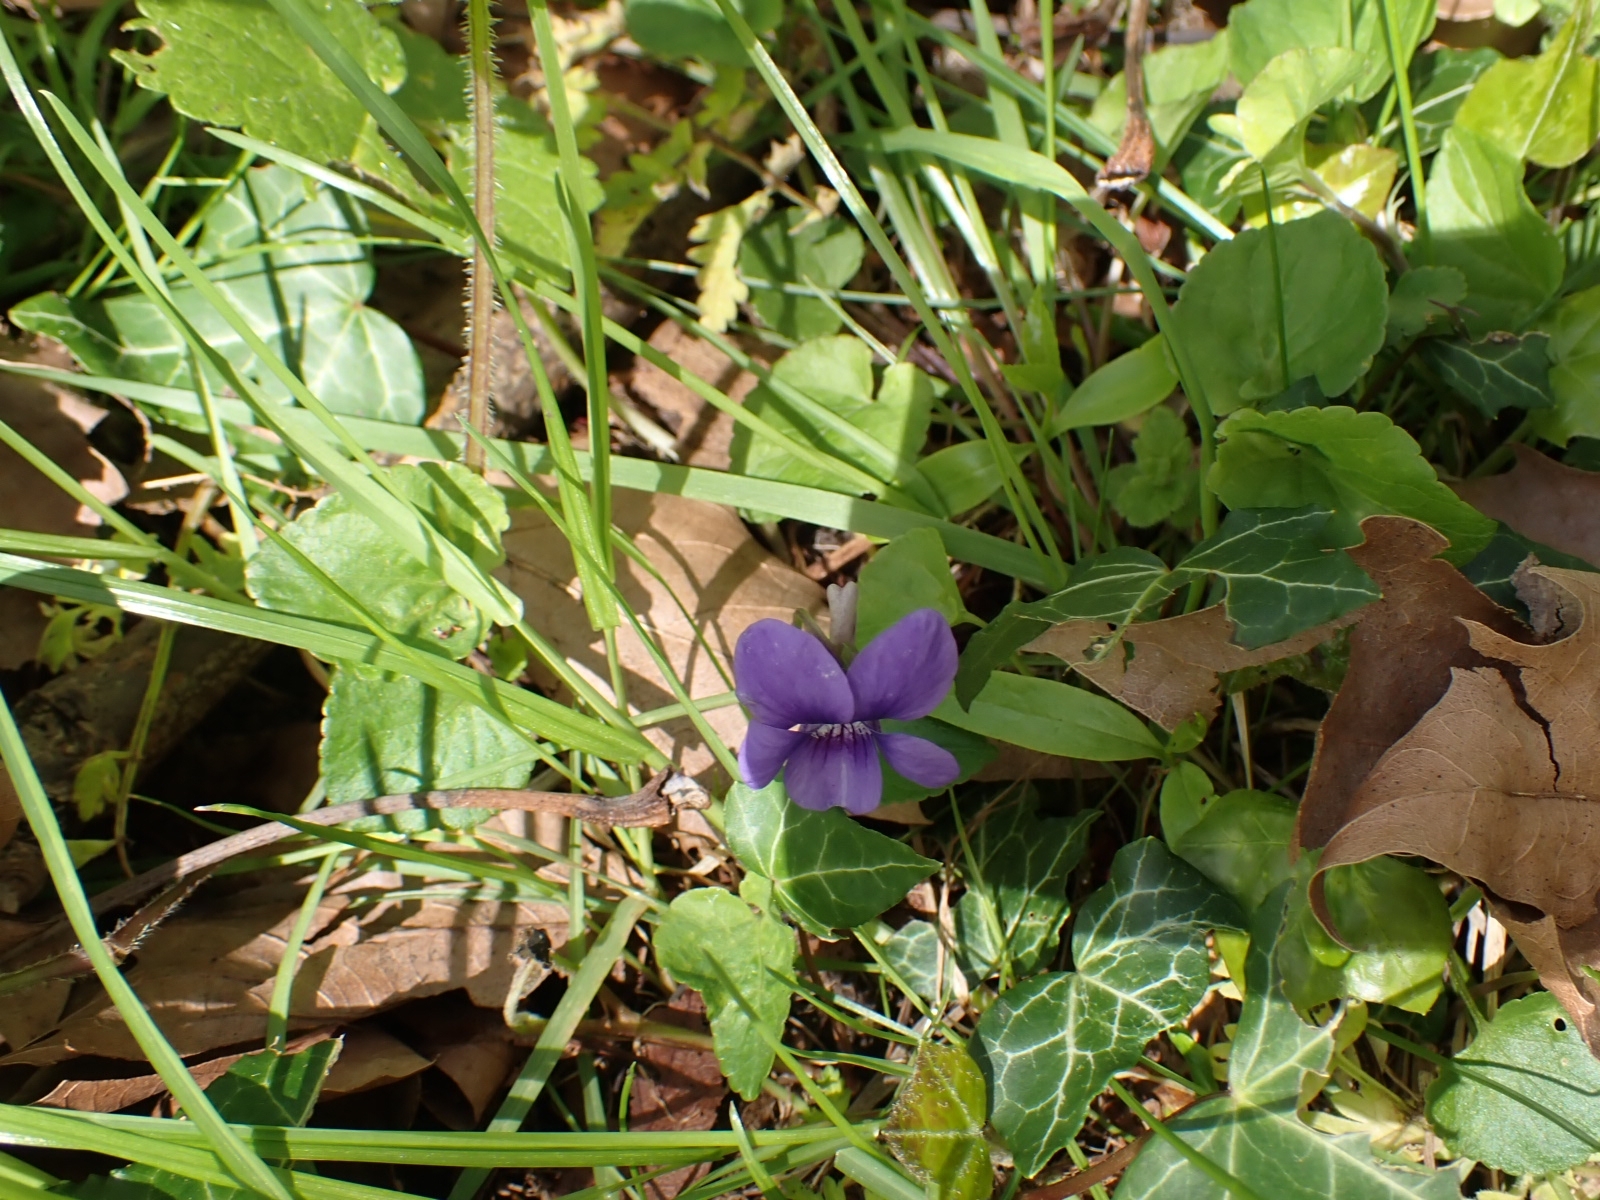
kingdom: Plantae
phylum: Tracheophyta
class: Magnoliopsida
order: Malpighiales
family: Violaceae
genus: Viola
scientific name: Viola riviniana
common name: Common dog-violet
